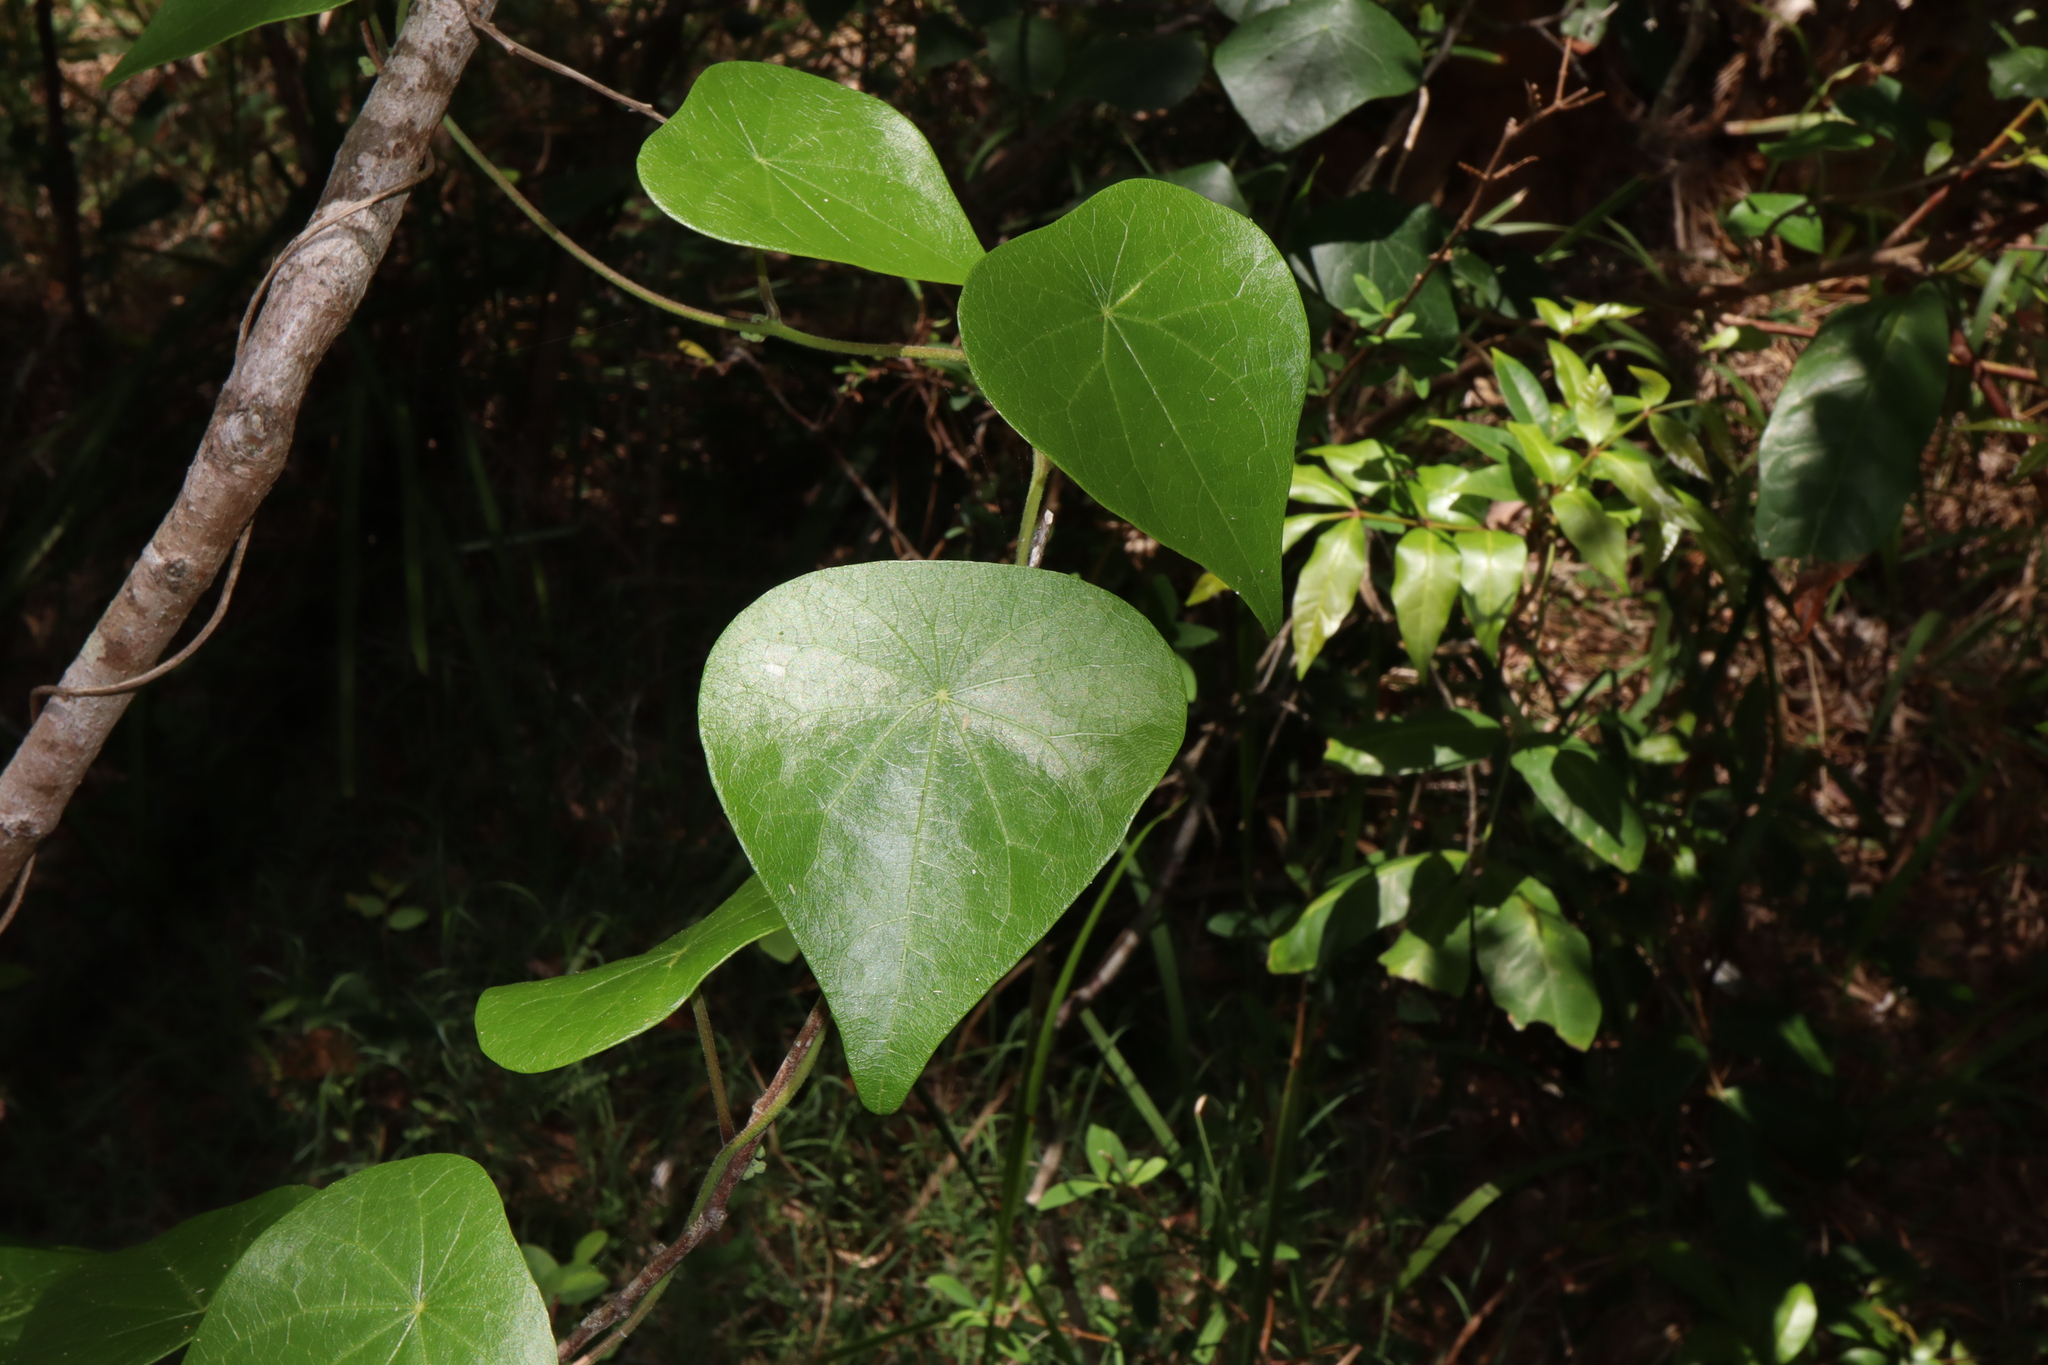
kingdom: Plantae
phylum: Tracheophyta
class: Magnoliopsida
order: Ranunculales
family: Menispermaceae
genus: Stephania
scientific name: Stephania japonica
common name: Snake vine
